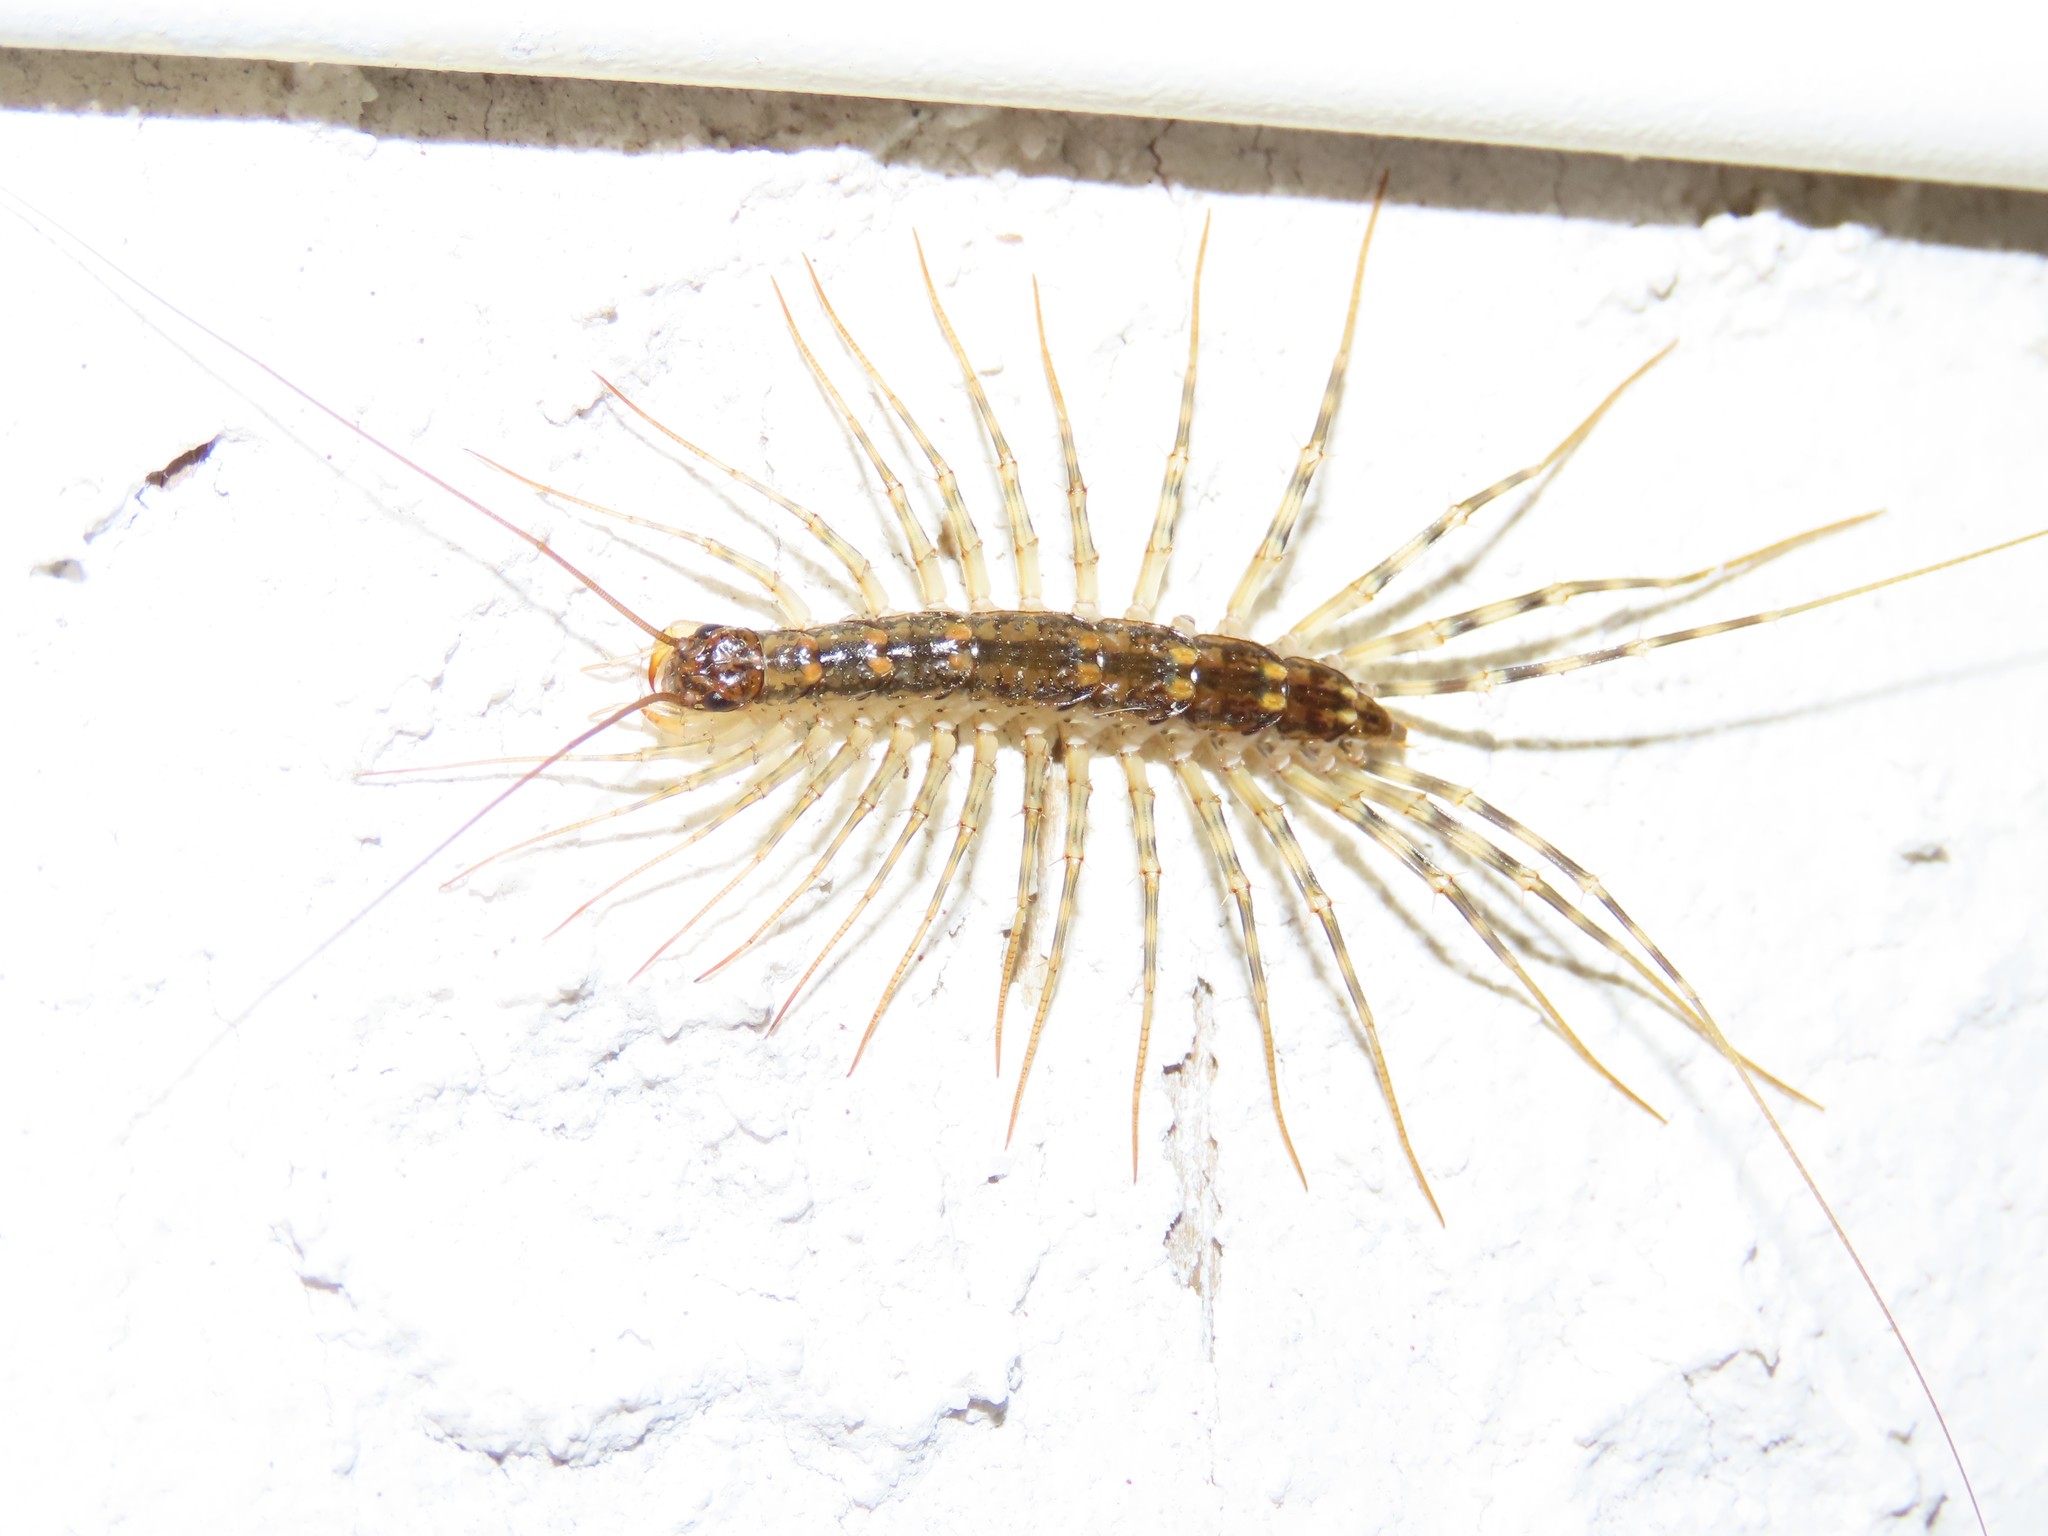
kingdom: Animalia
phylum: Arthropoda
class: Chilopoda
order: Scutigeromorpha
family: Scutigeridae
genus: Thereuonema
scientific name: Thereuonema tuberculata
